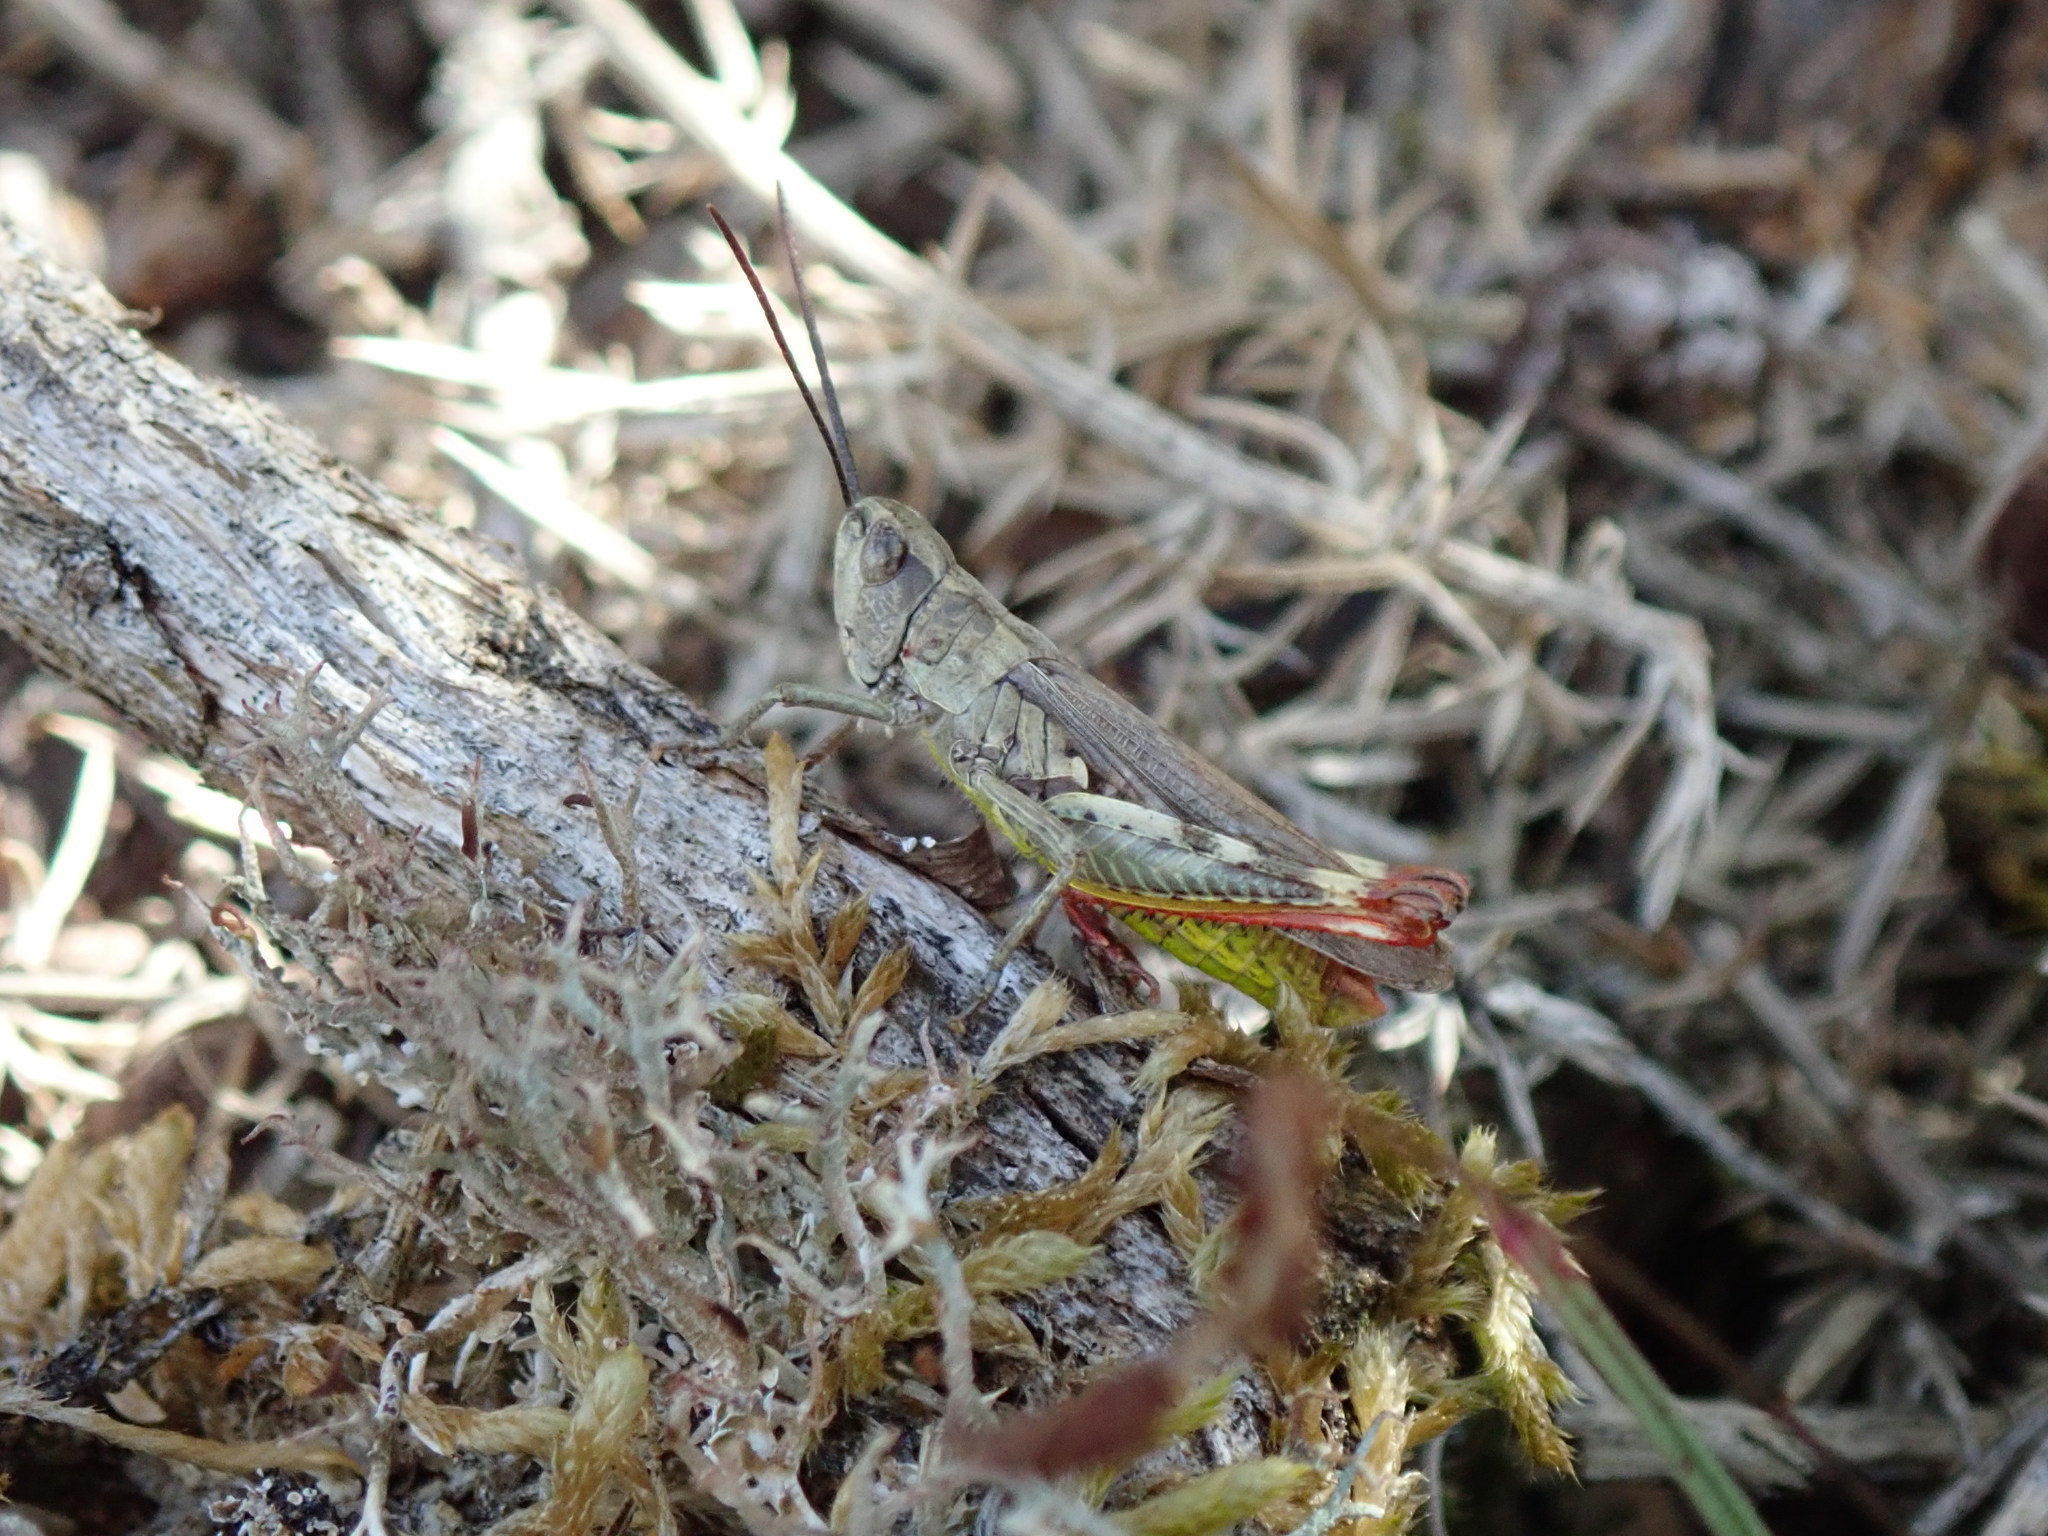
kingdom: Animalia
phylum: Arthropoda
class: Insecta
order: Orthoptera
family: Acrididae
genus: Chorthippus
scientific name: Chorthippus binotatus
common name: Two-marked grasshopper
